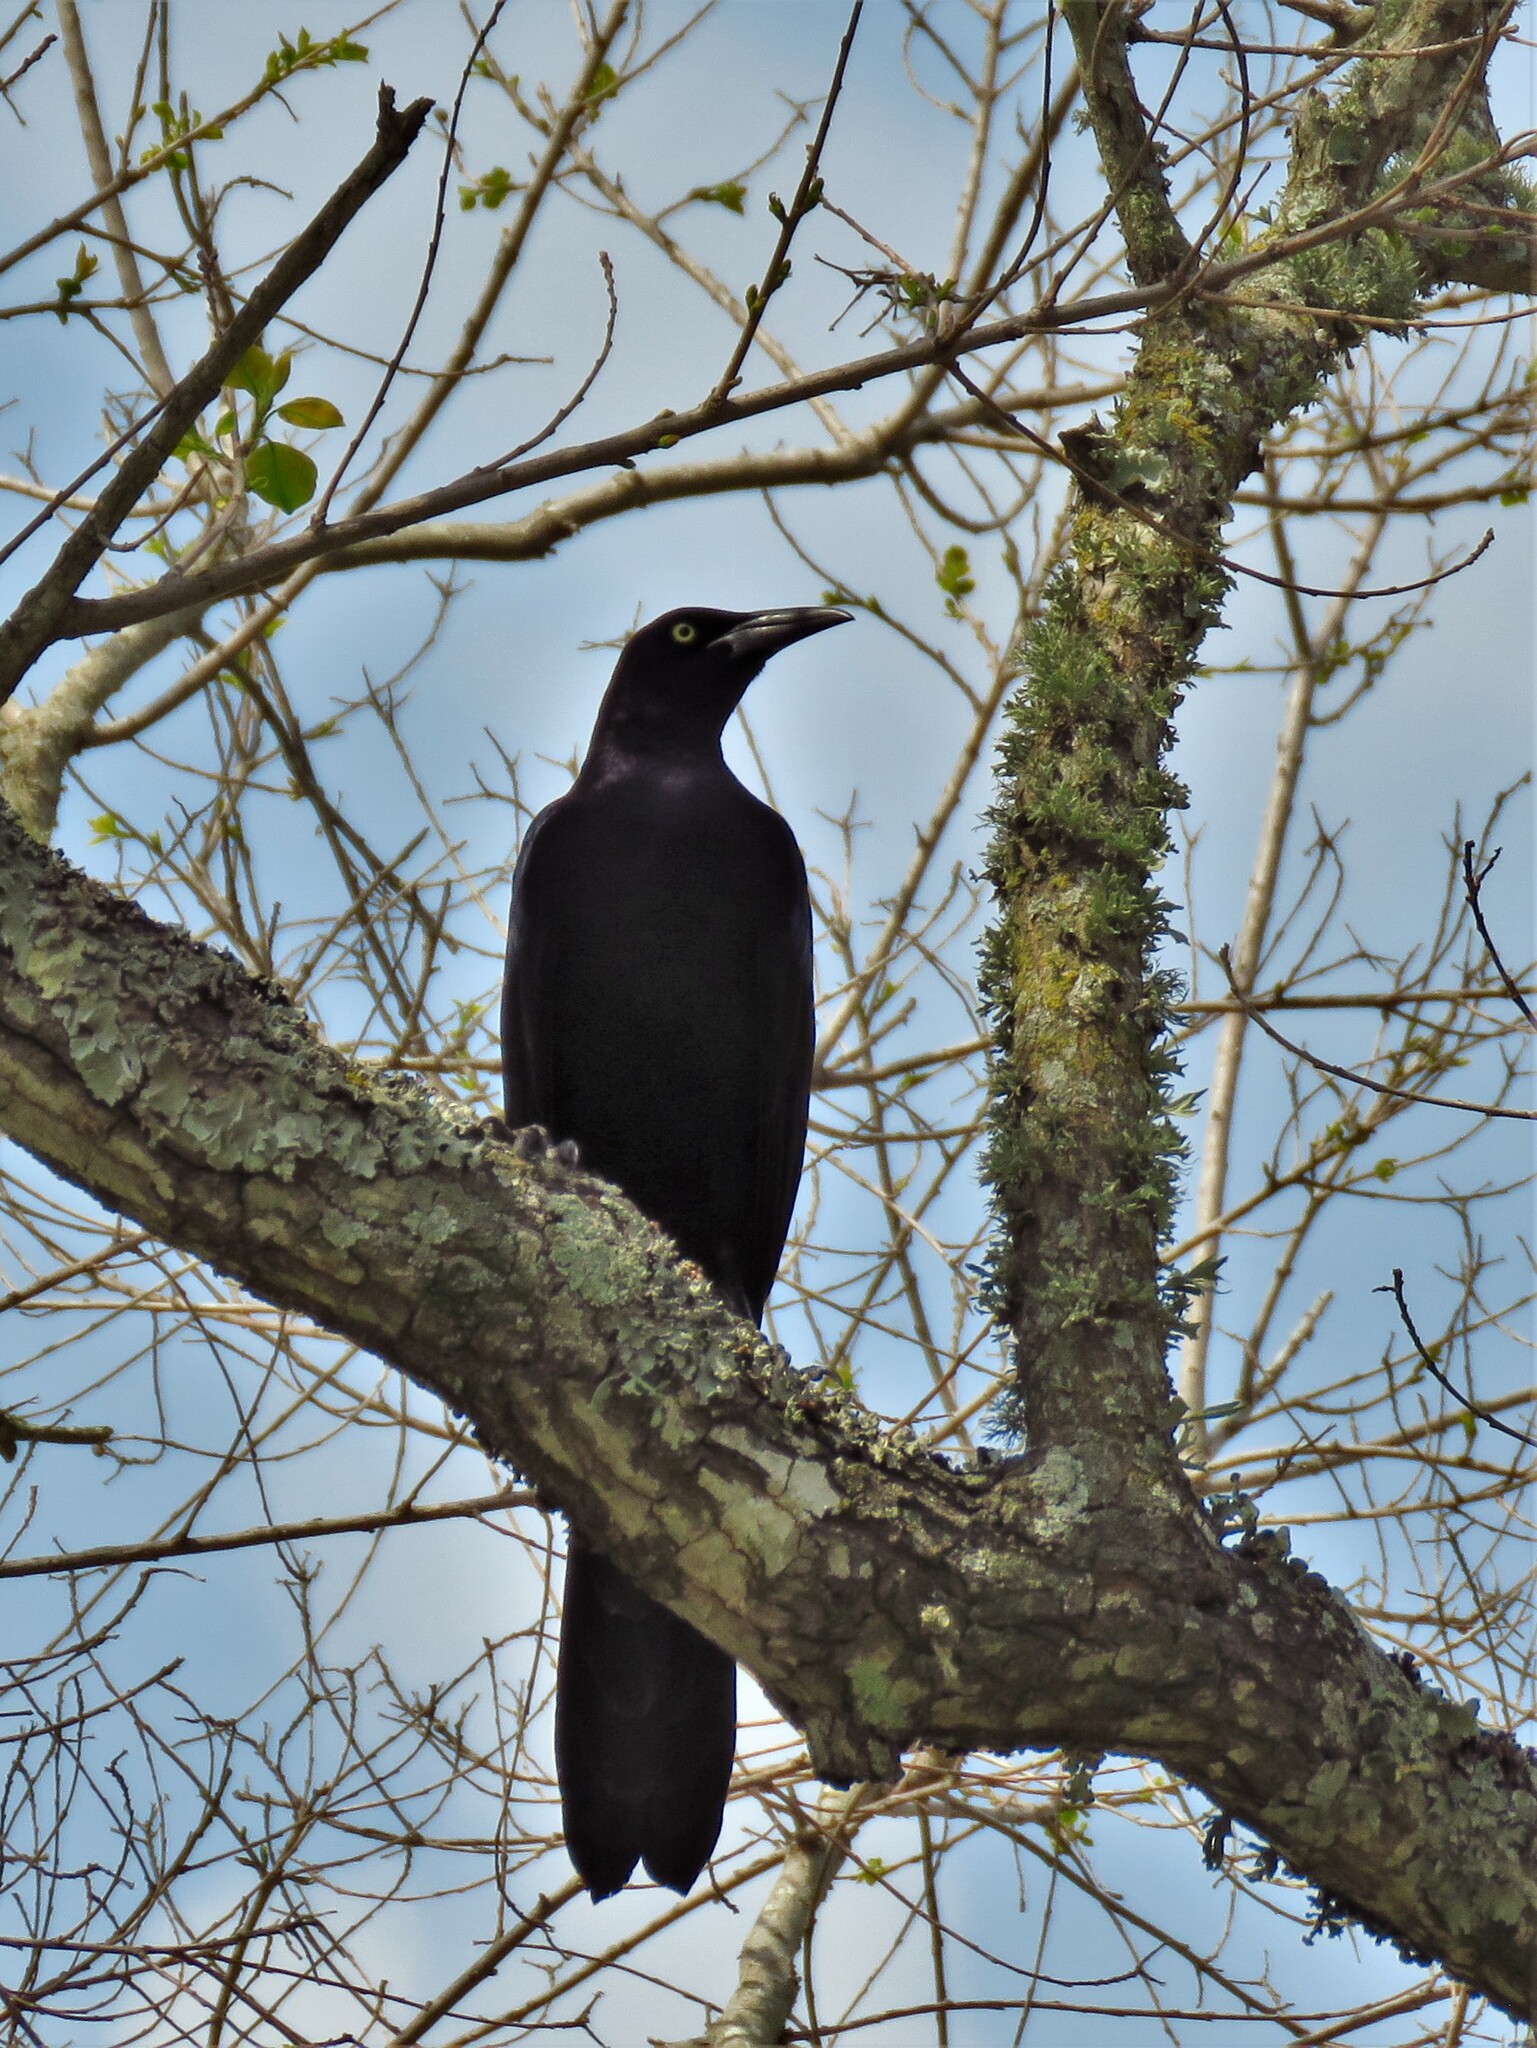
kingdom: Animalia
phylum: Chordata
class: Aves
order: Passeriformes
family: Icteridae
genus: Quiscalus
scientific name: Quiscalus mexicanus
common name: Great-tailed grackle
